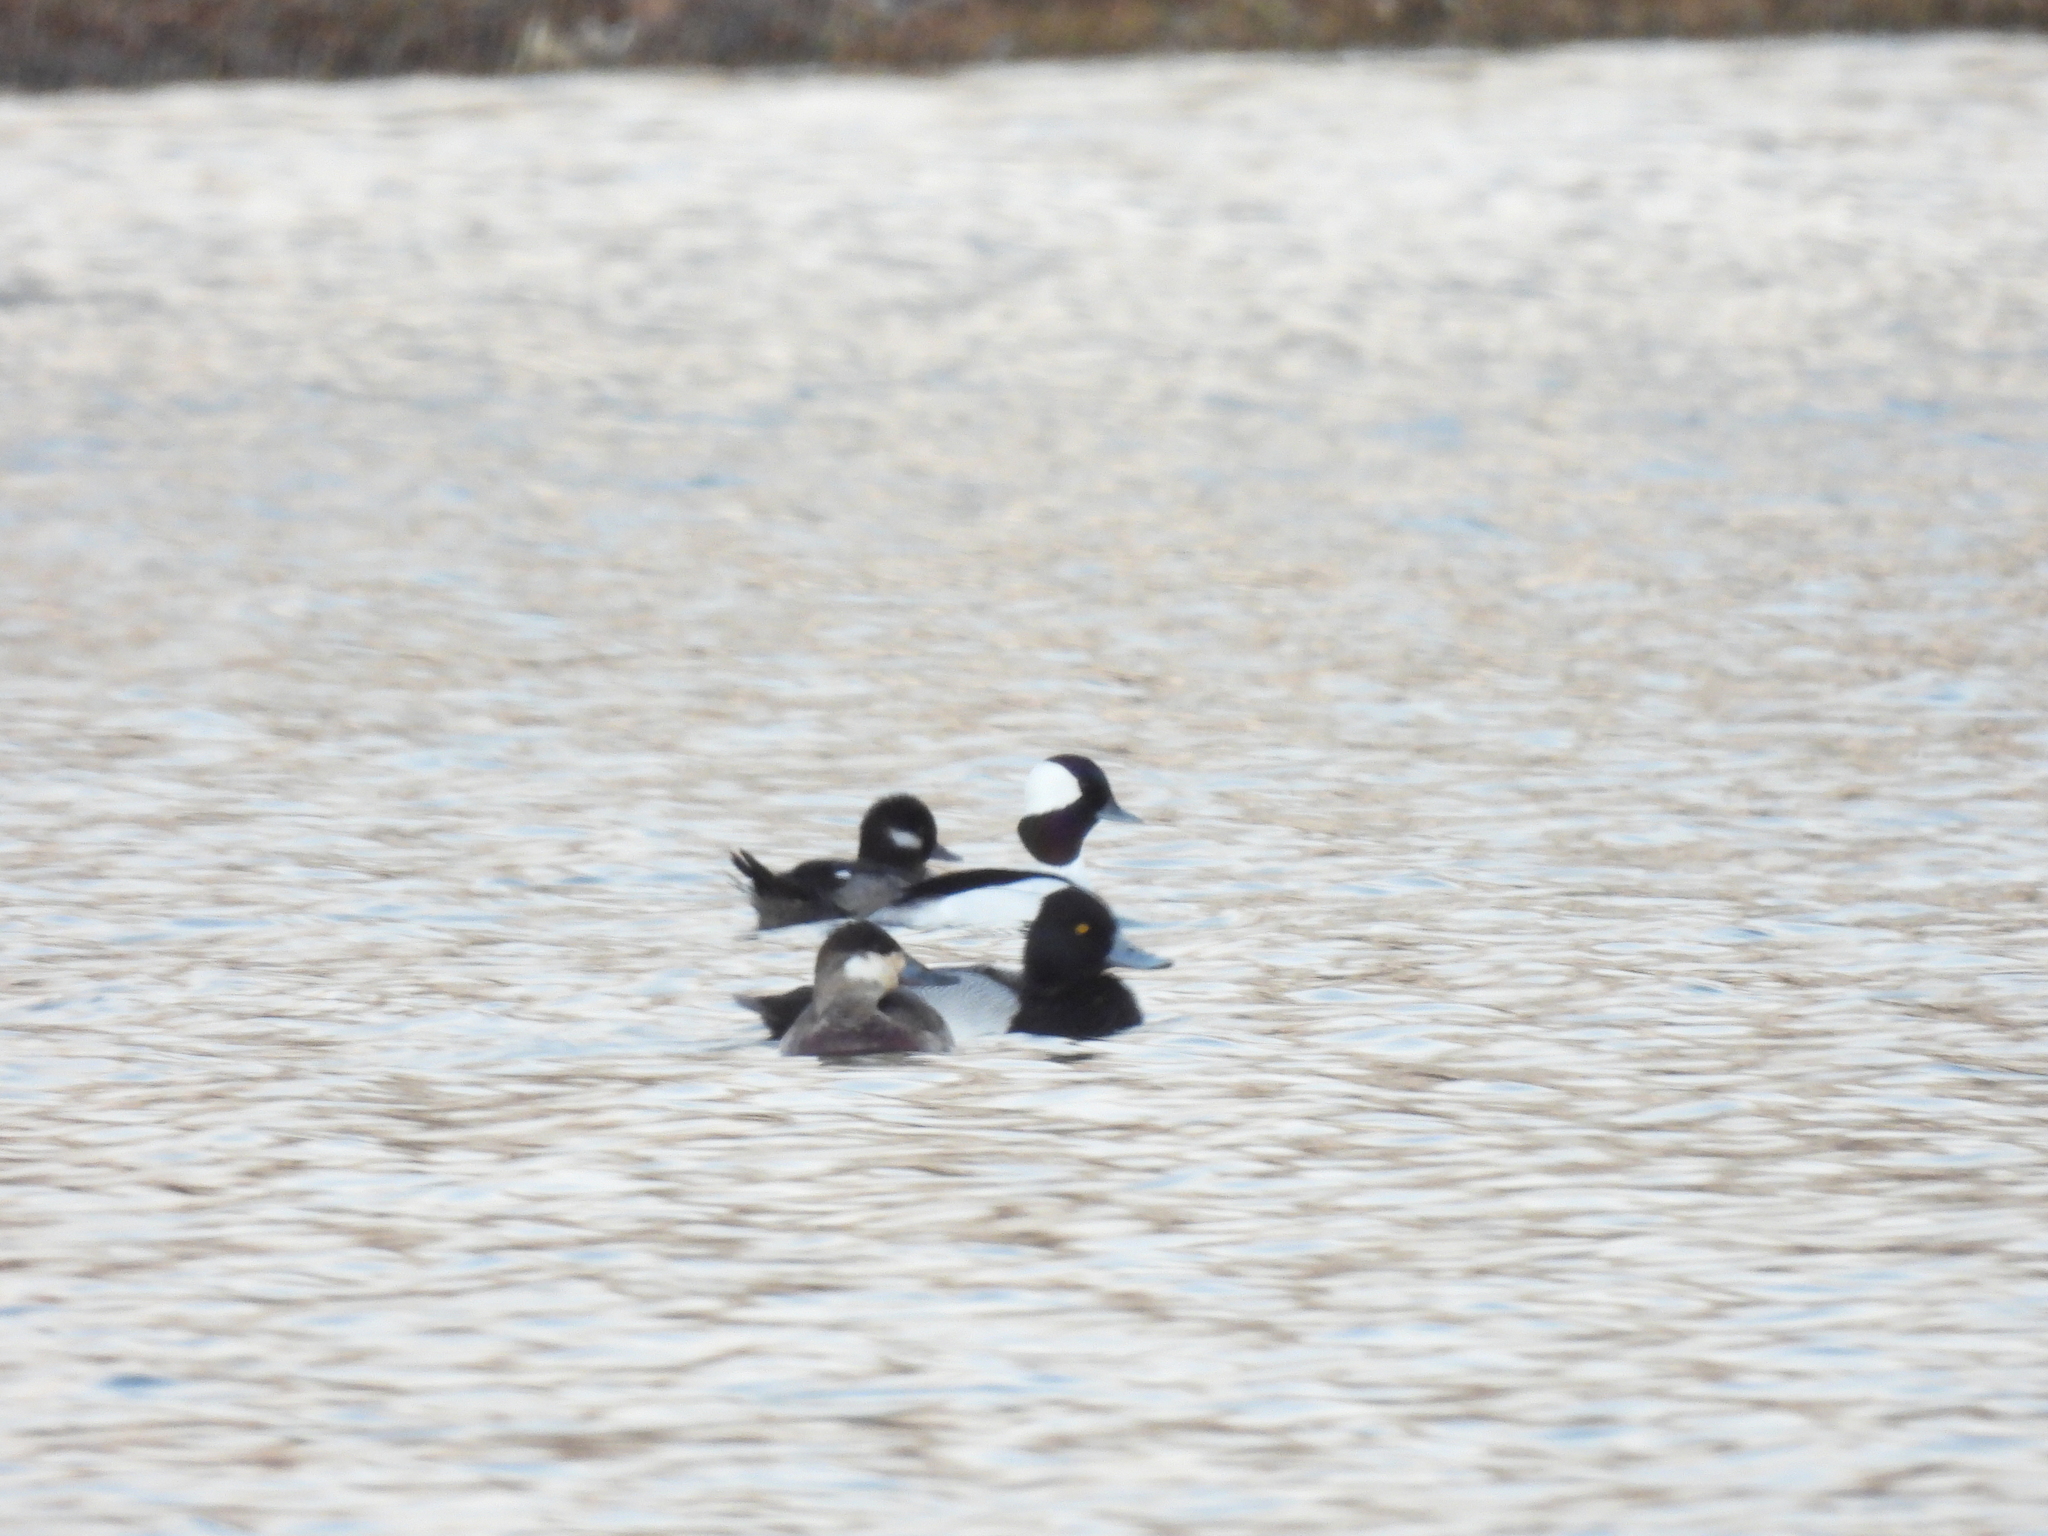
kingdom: Animalia
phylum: Chordata
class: Aves
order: Anseriformes
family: Anatidae
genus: Aythya
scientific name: Aythya affinis
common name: Lesser scaup
